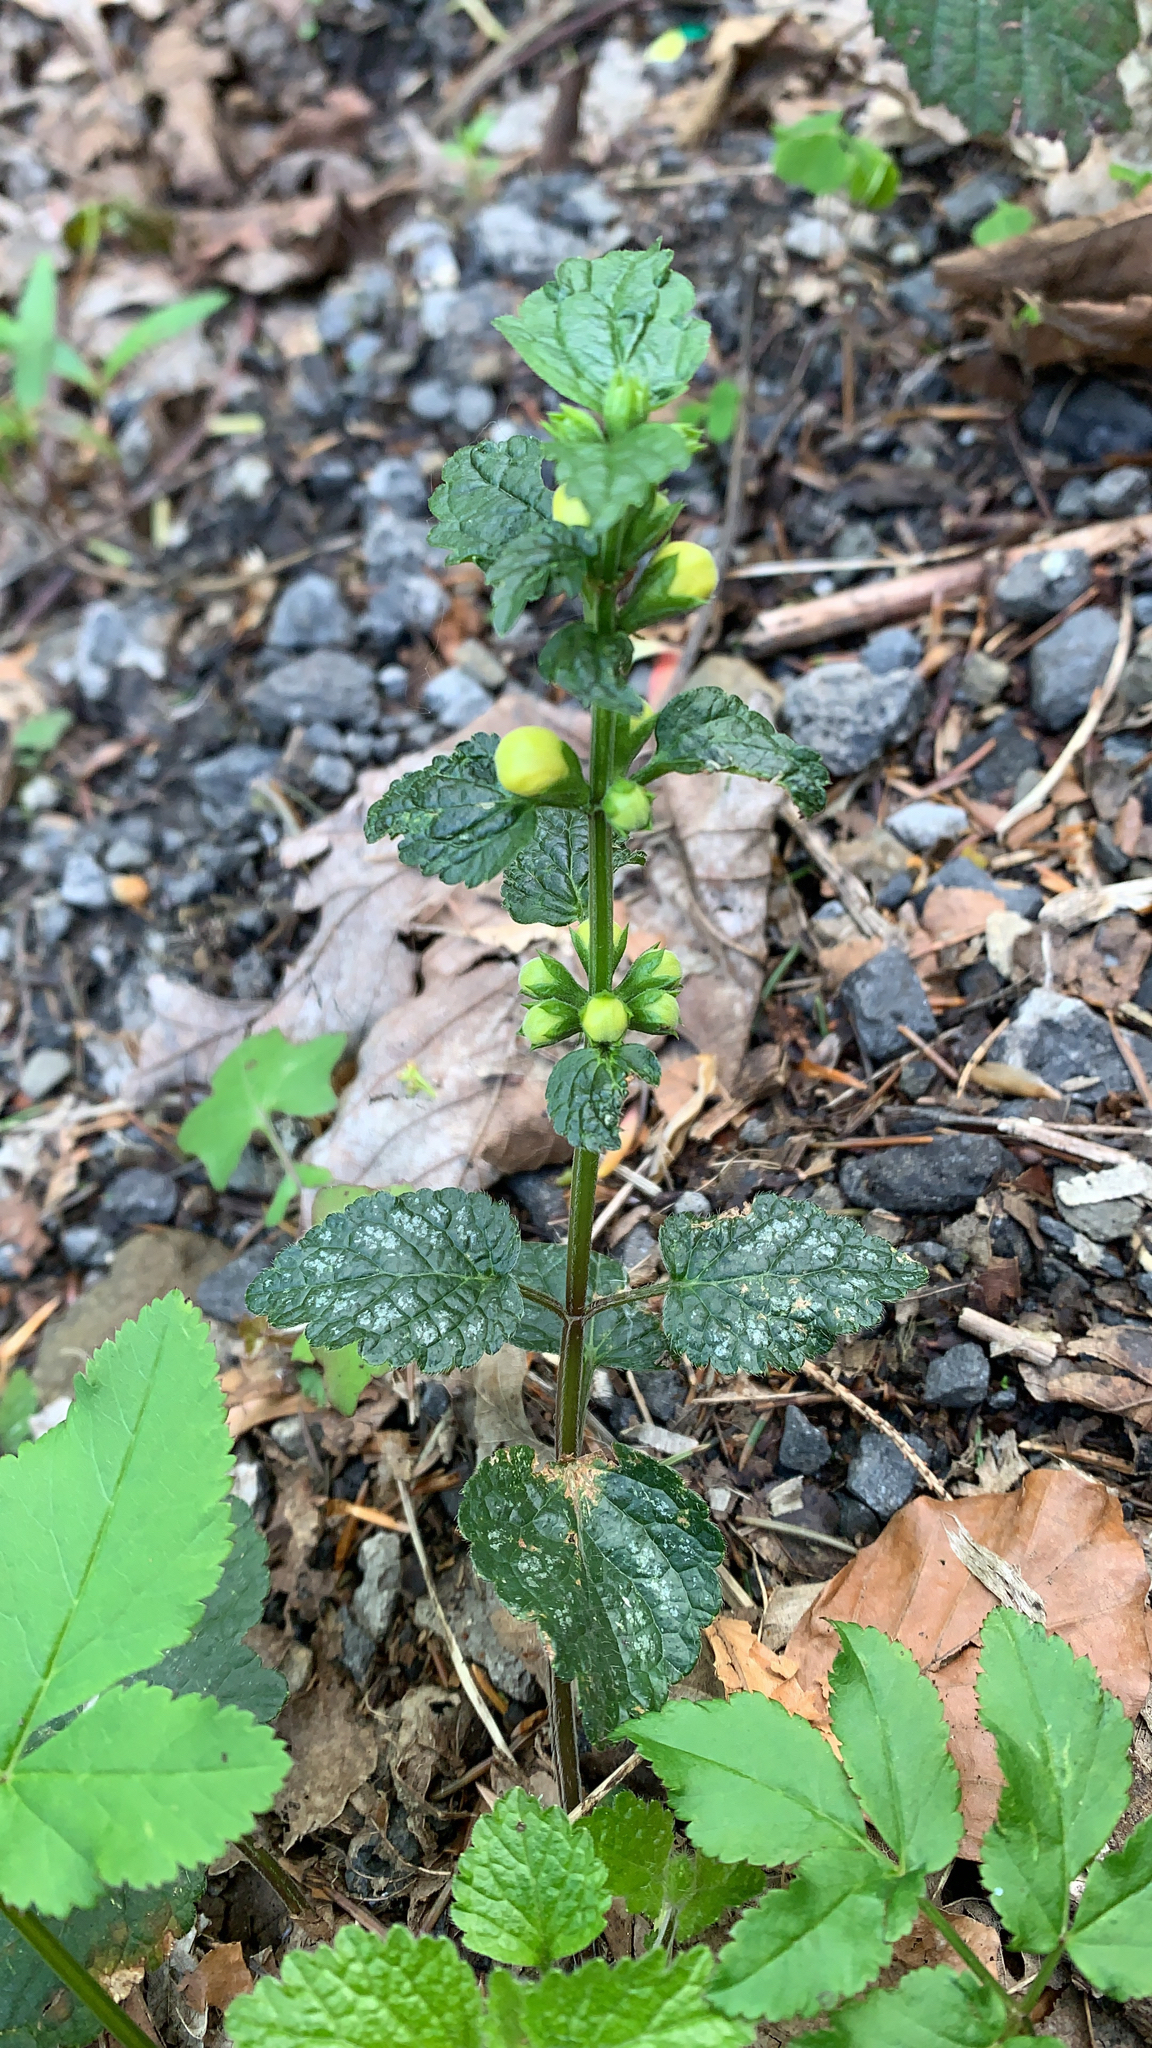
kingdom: Plantae
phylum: Tracheophyta
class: Magnoliopsida
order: Lamiales
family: Lamiaceae
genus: Lamium
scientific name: Lamium galeobdolon
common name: Yellow archangel
